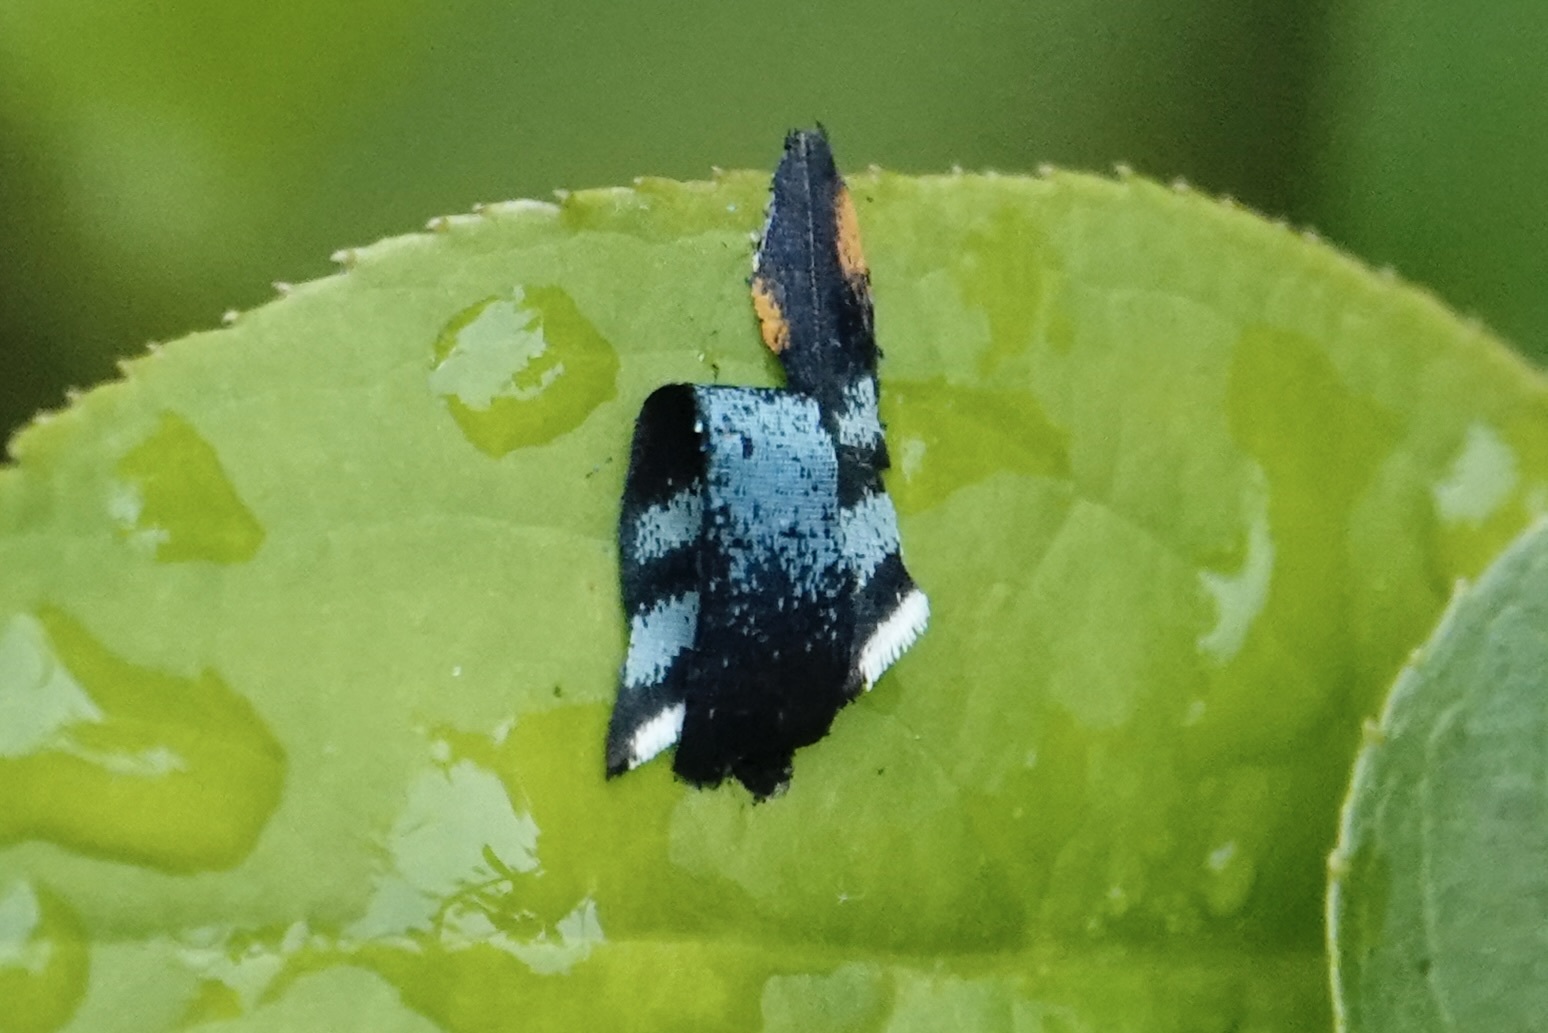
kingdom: Animalia
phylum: Arthropoda
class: Insecta
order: Lepidoptera
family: Nymphalidae
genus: Limenitis
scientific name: Limenitis astyanax
